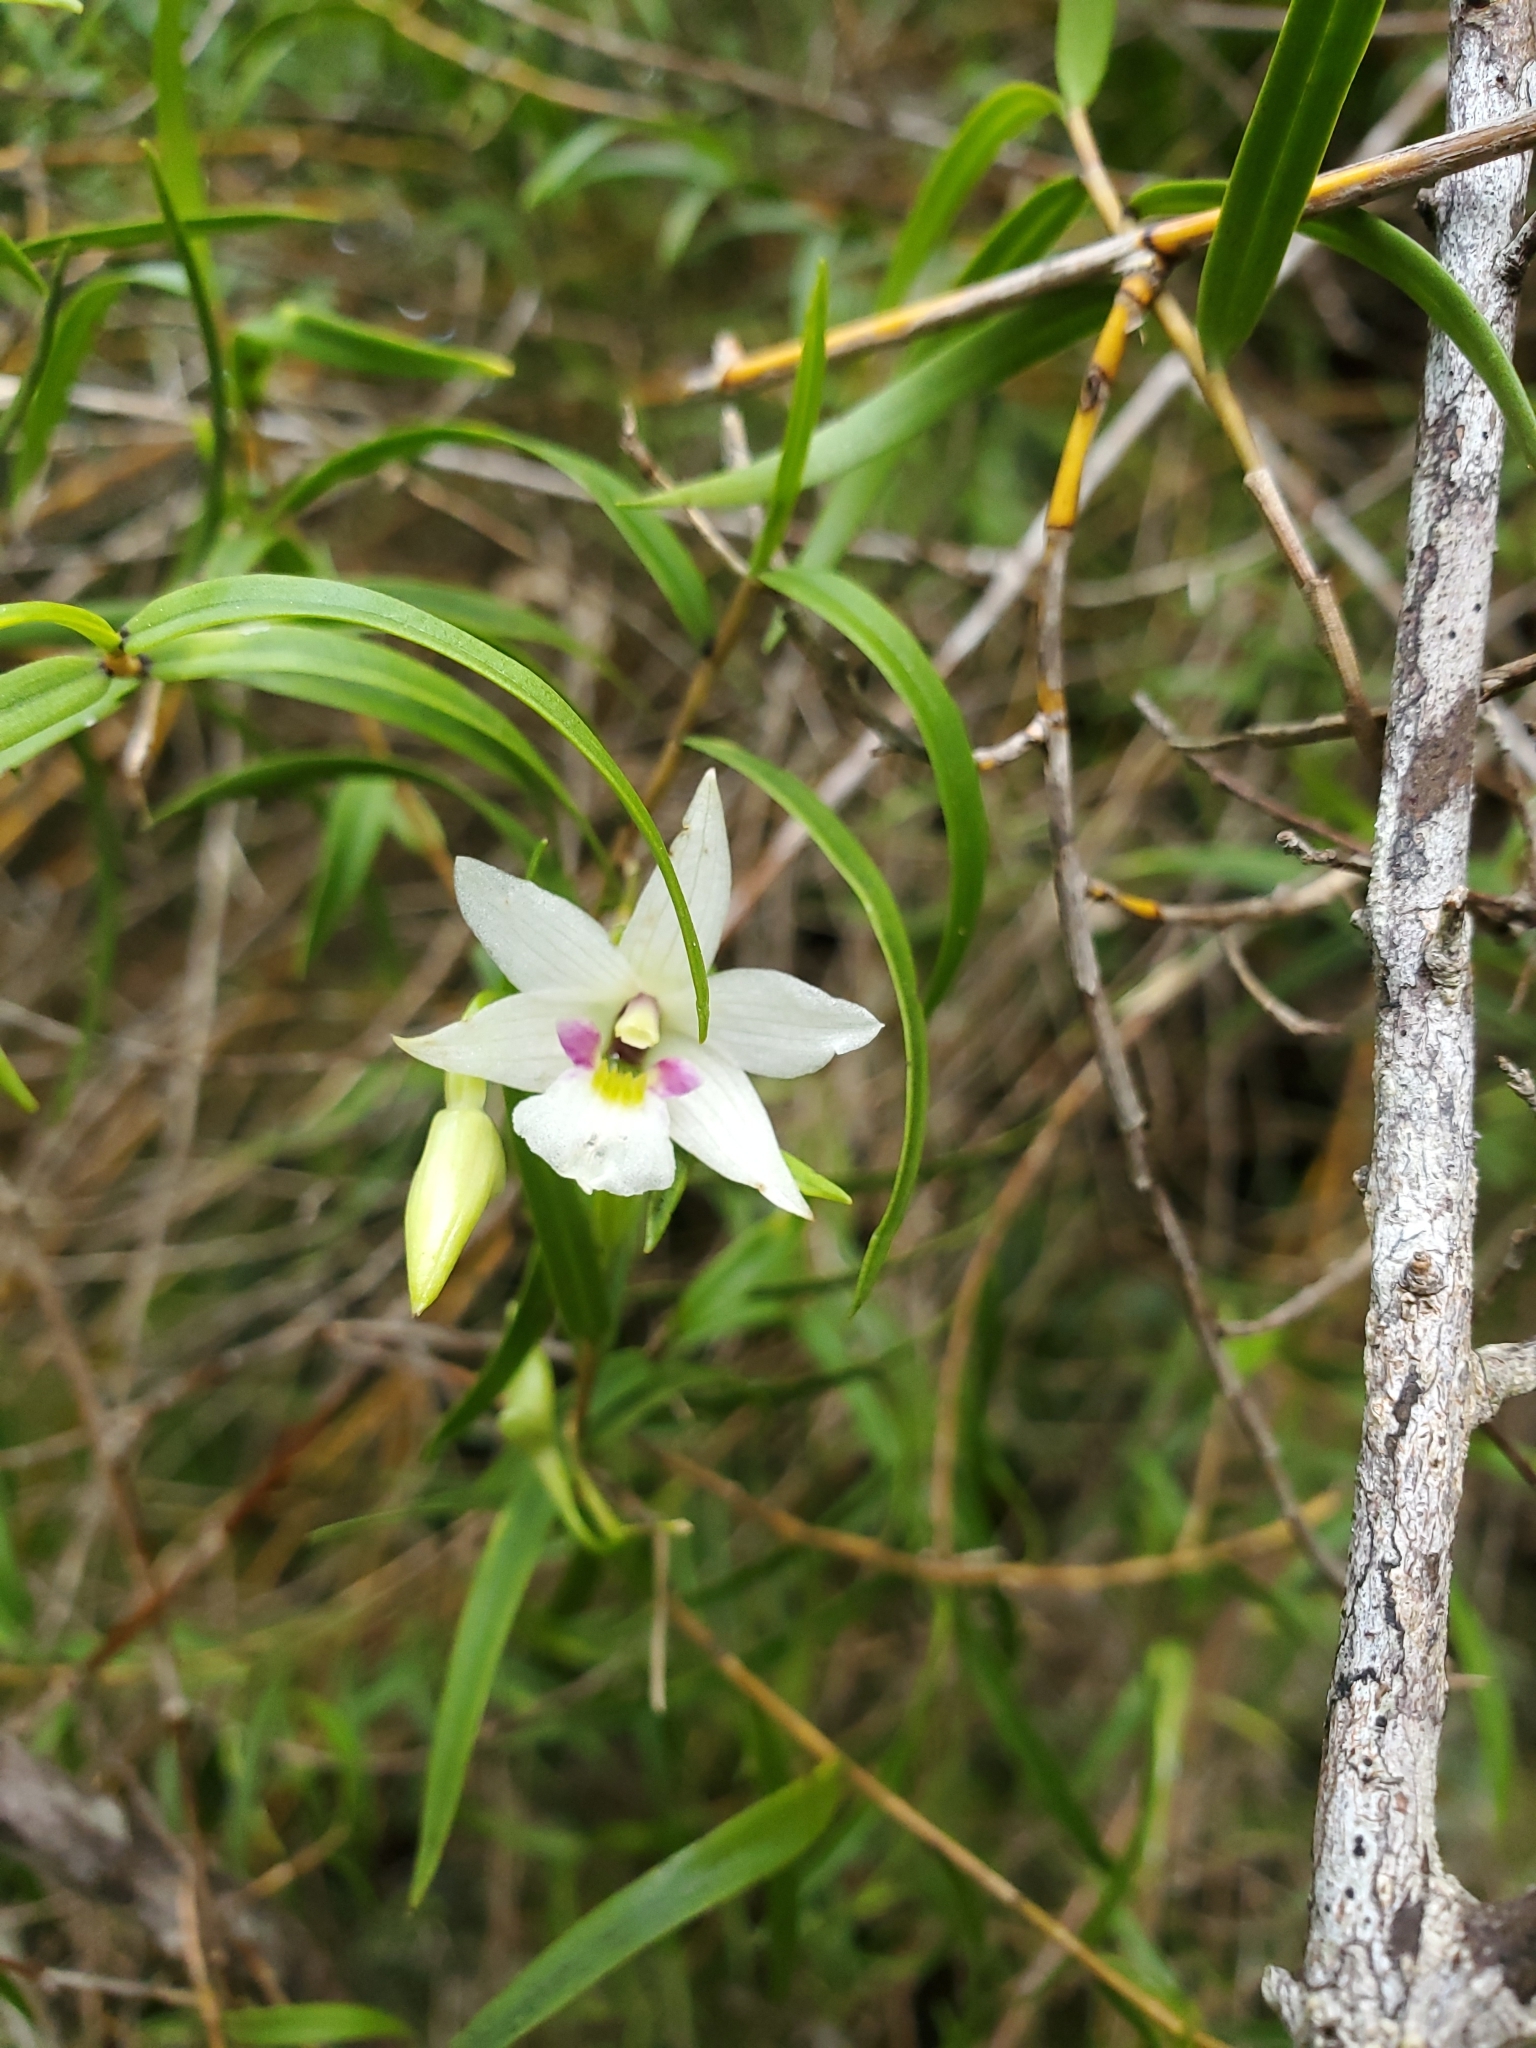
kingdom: Plantae
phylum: Tracheophyta
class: Liliopsida
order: Asparagales
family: Orchidaceae
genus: Dendrobium
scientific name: Dendrobium cunninghamii
